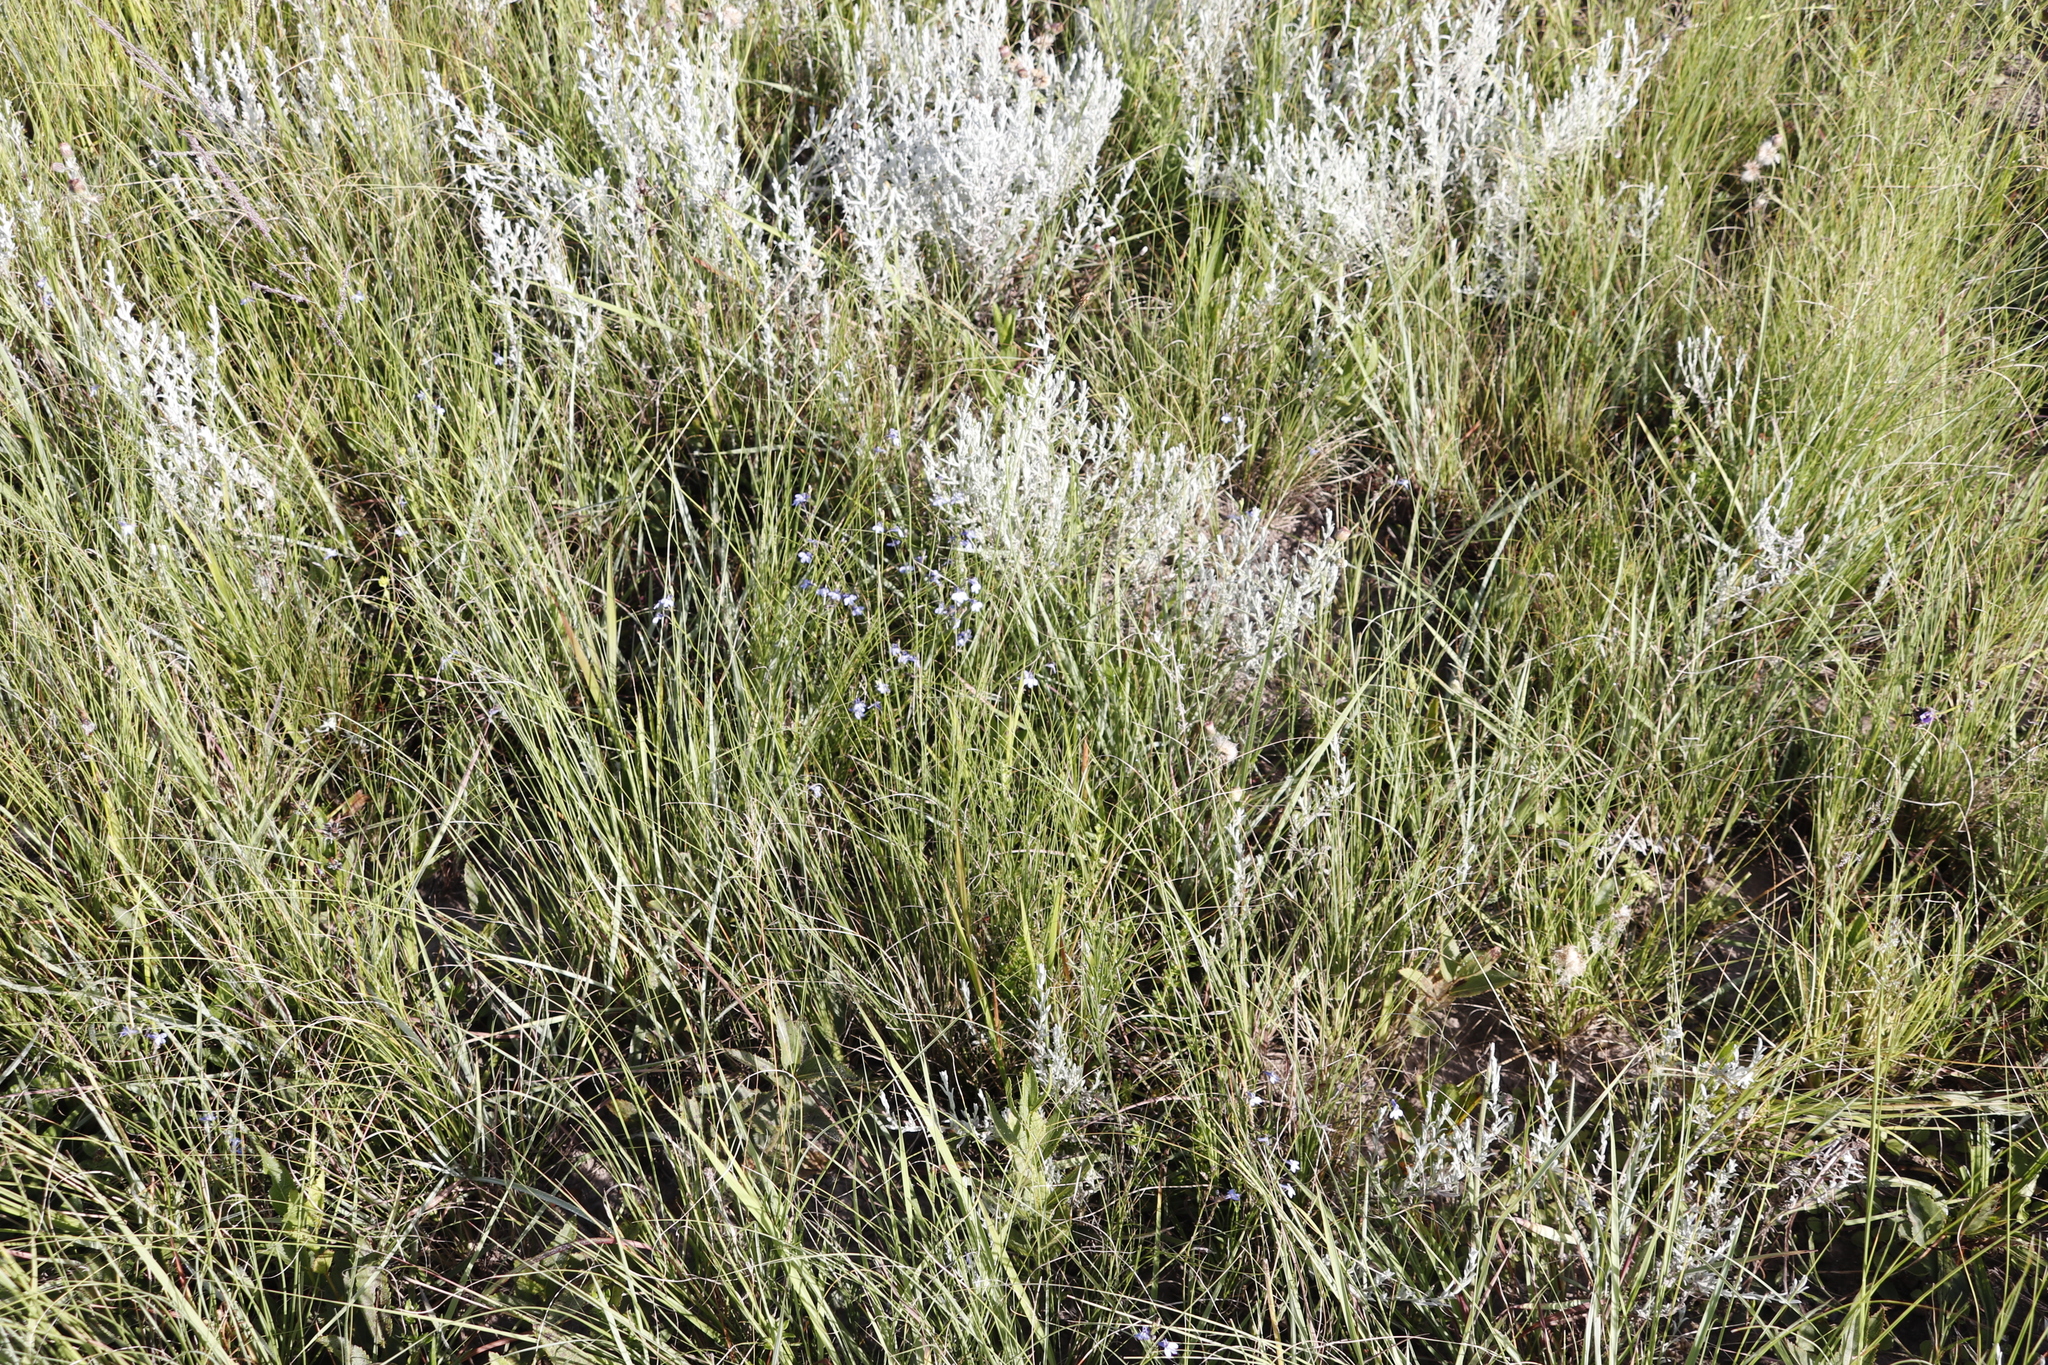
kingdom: Plantae
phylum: Tracheophyta
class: Magnoliopsida
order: Asterales
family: Asteraceae
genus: Helichrysum
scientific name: Helichrysum aureonitens
